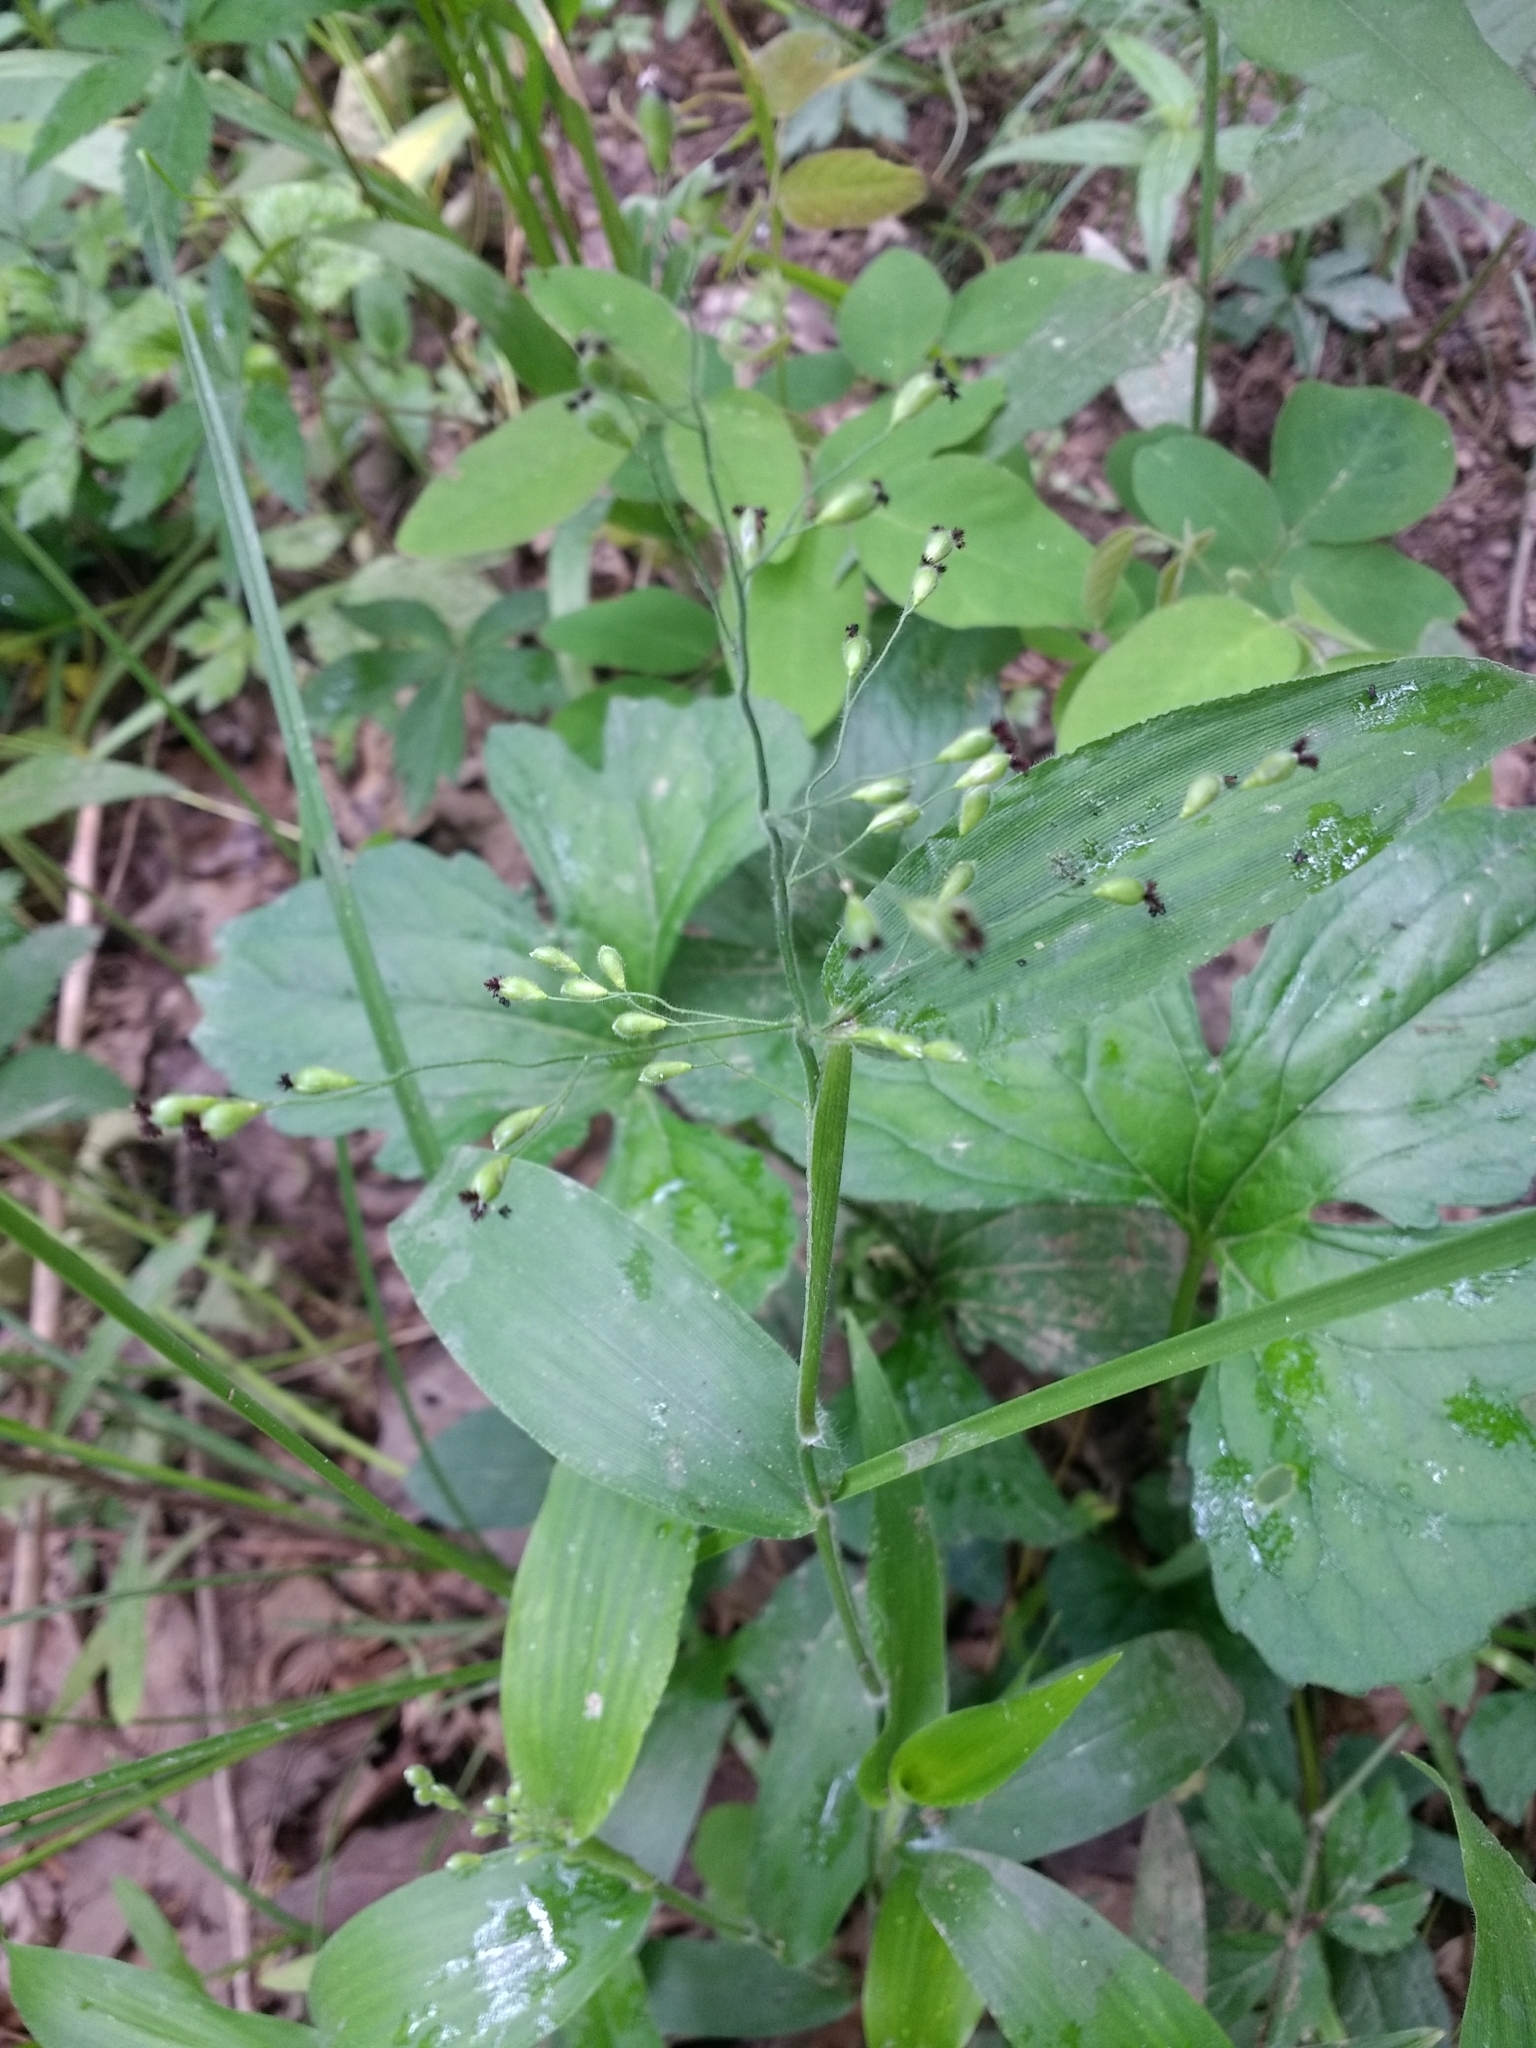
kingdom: Plantae
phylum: Tracheophyta
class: Liliopsida
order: Poales
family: Poaceae
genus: Dichanthelium
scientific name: Dichanthelium boscii
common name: Bosc's panic grass
